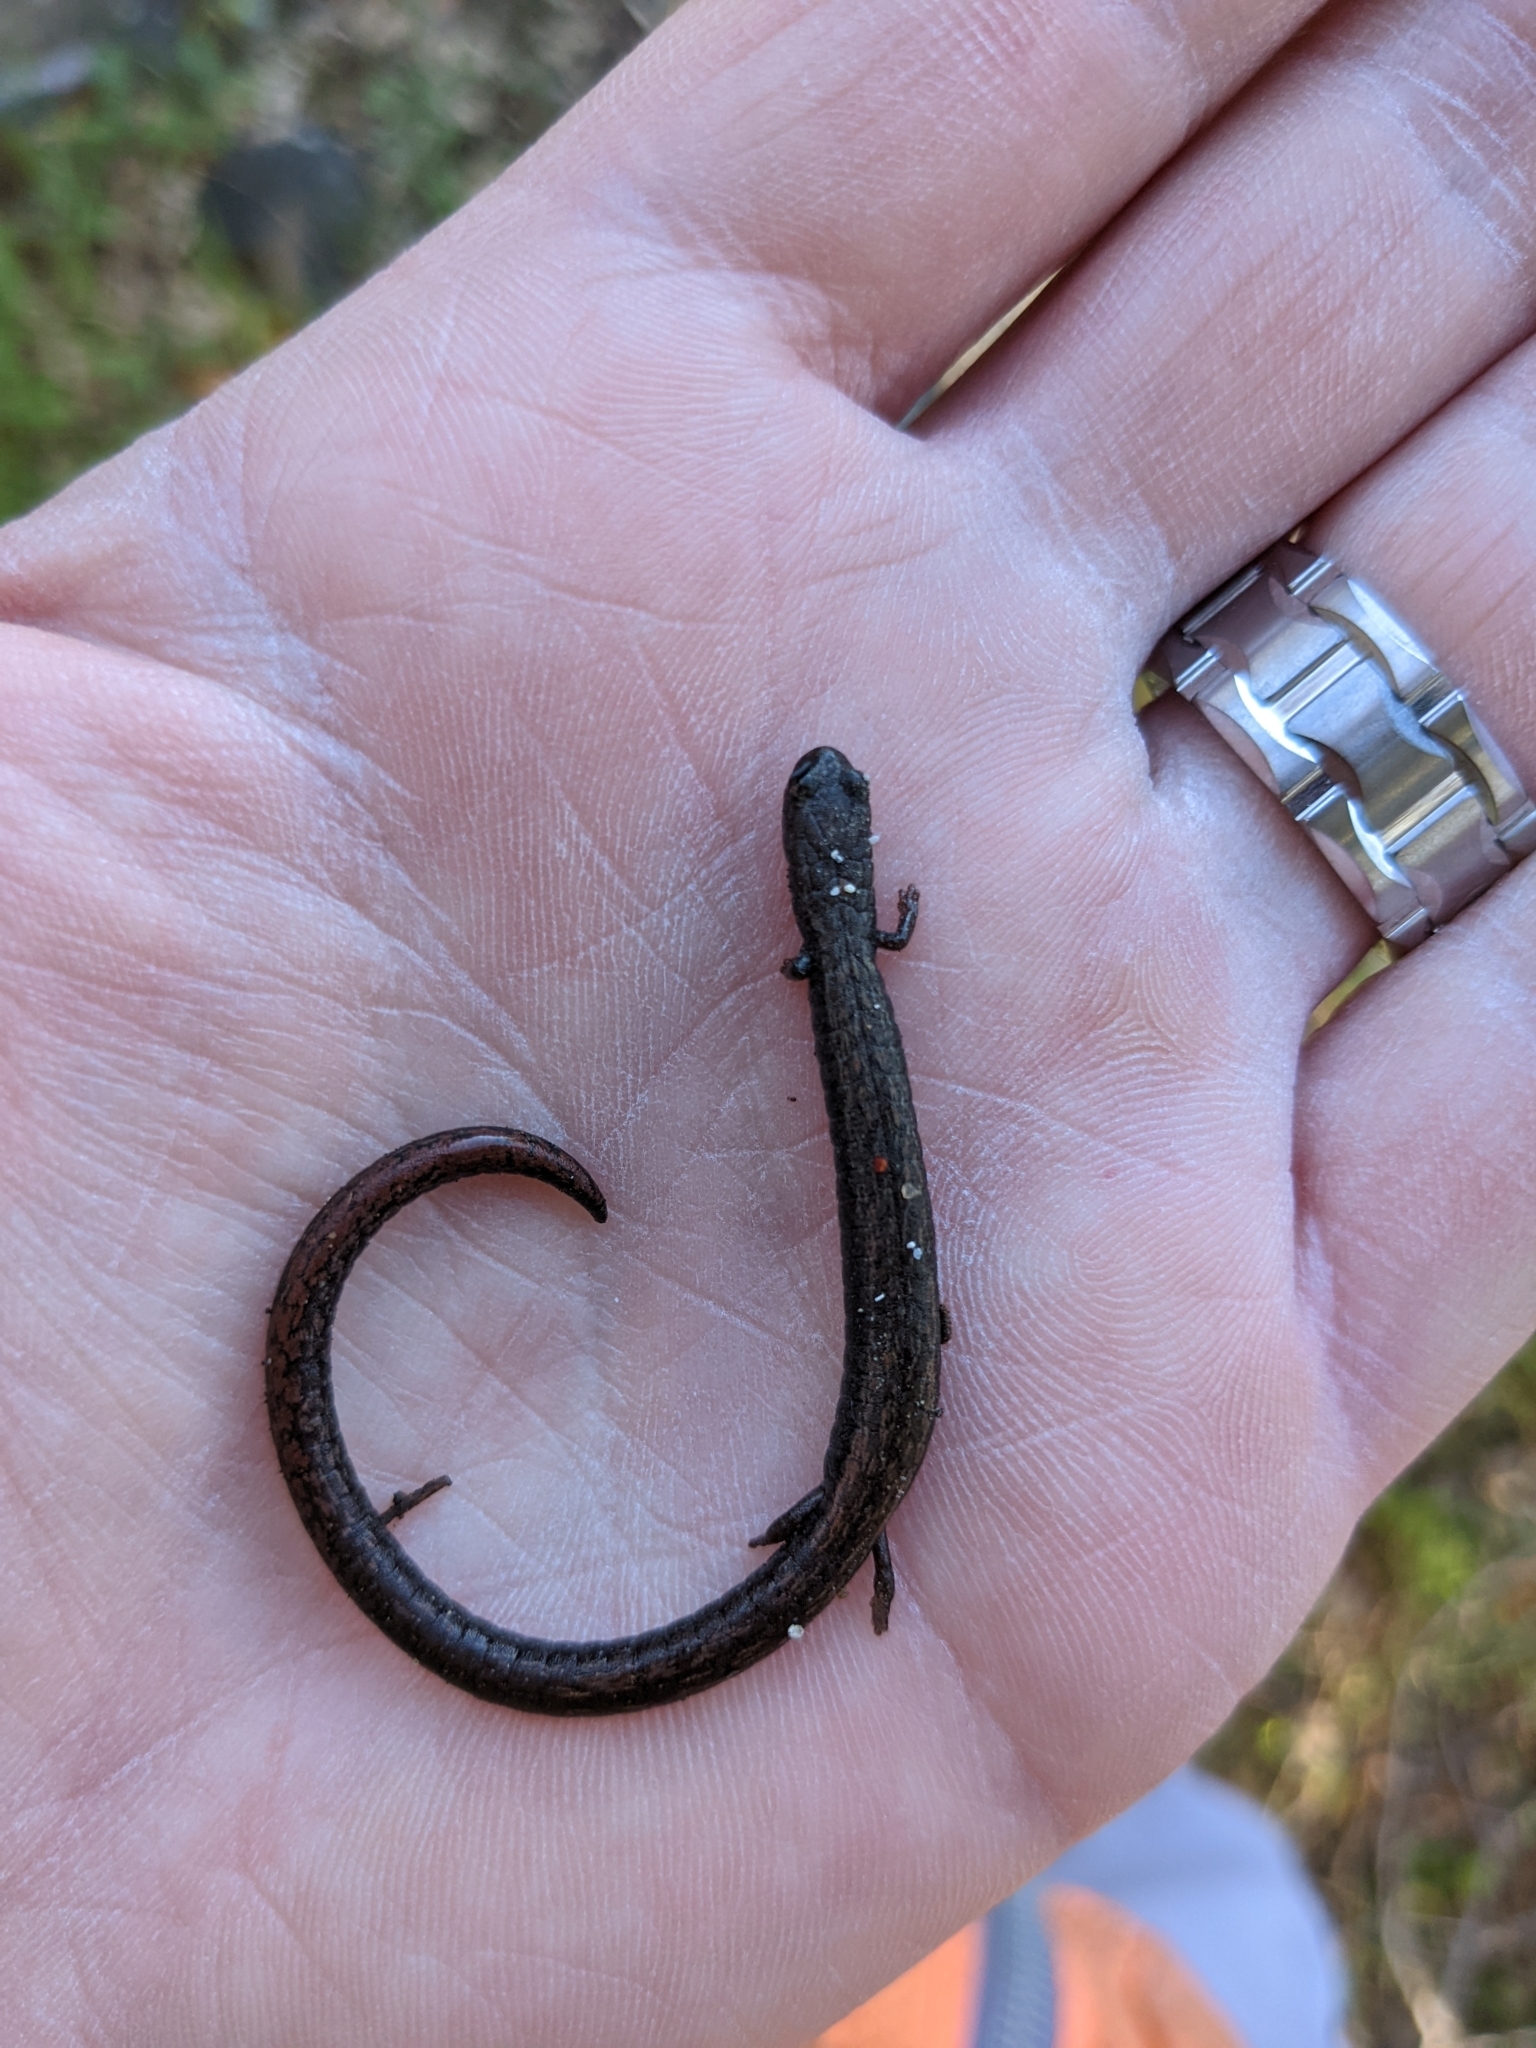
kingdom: Animalia
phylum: Chordata
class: Amphibia
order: Caudata
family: Plethodontidae
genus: Batrachoseps
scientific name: Batrachoseps nigriventris
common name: Black-bellied slender salamander
